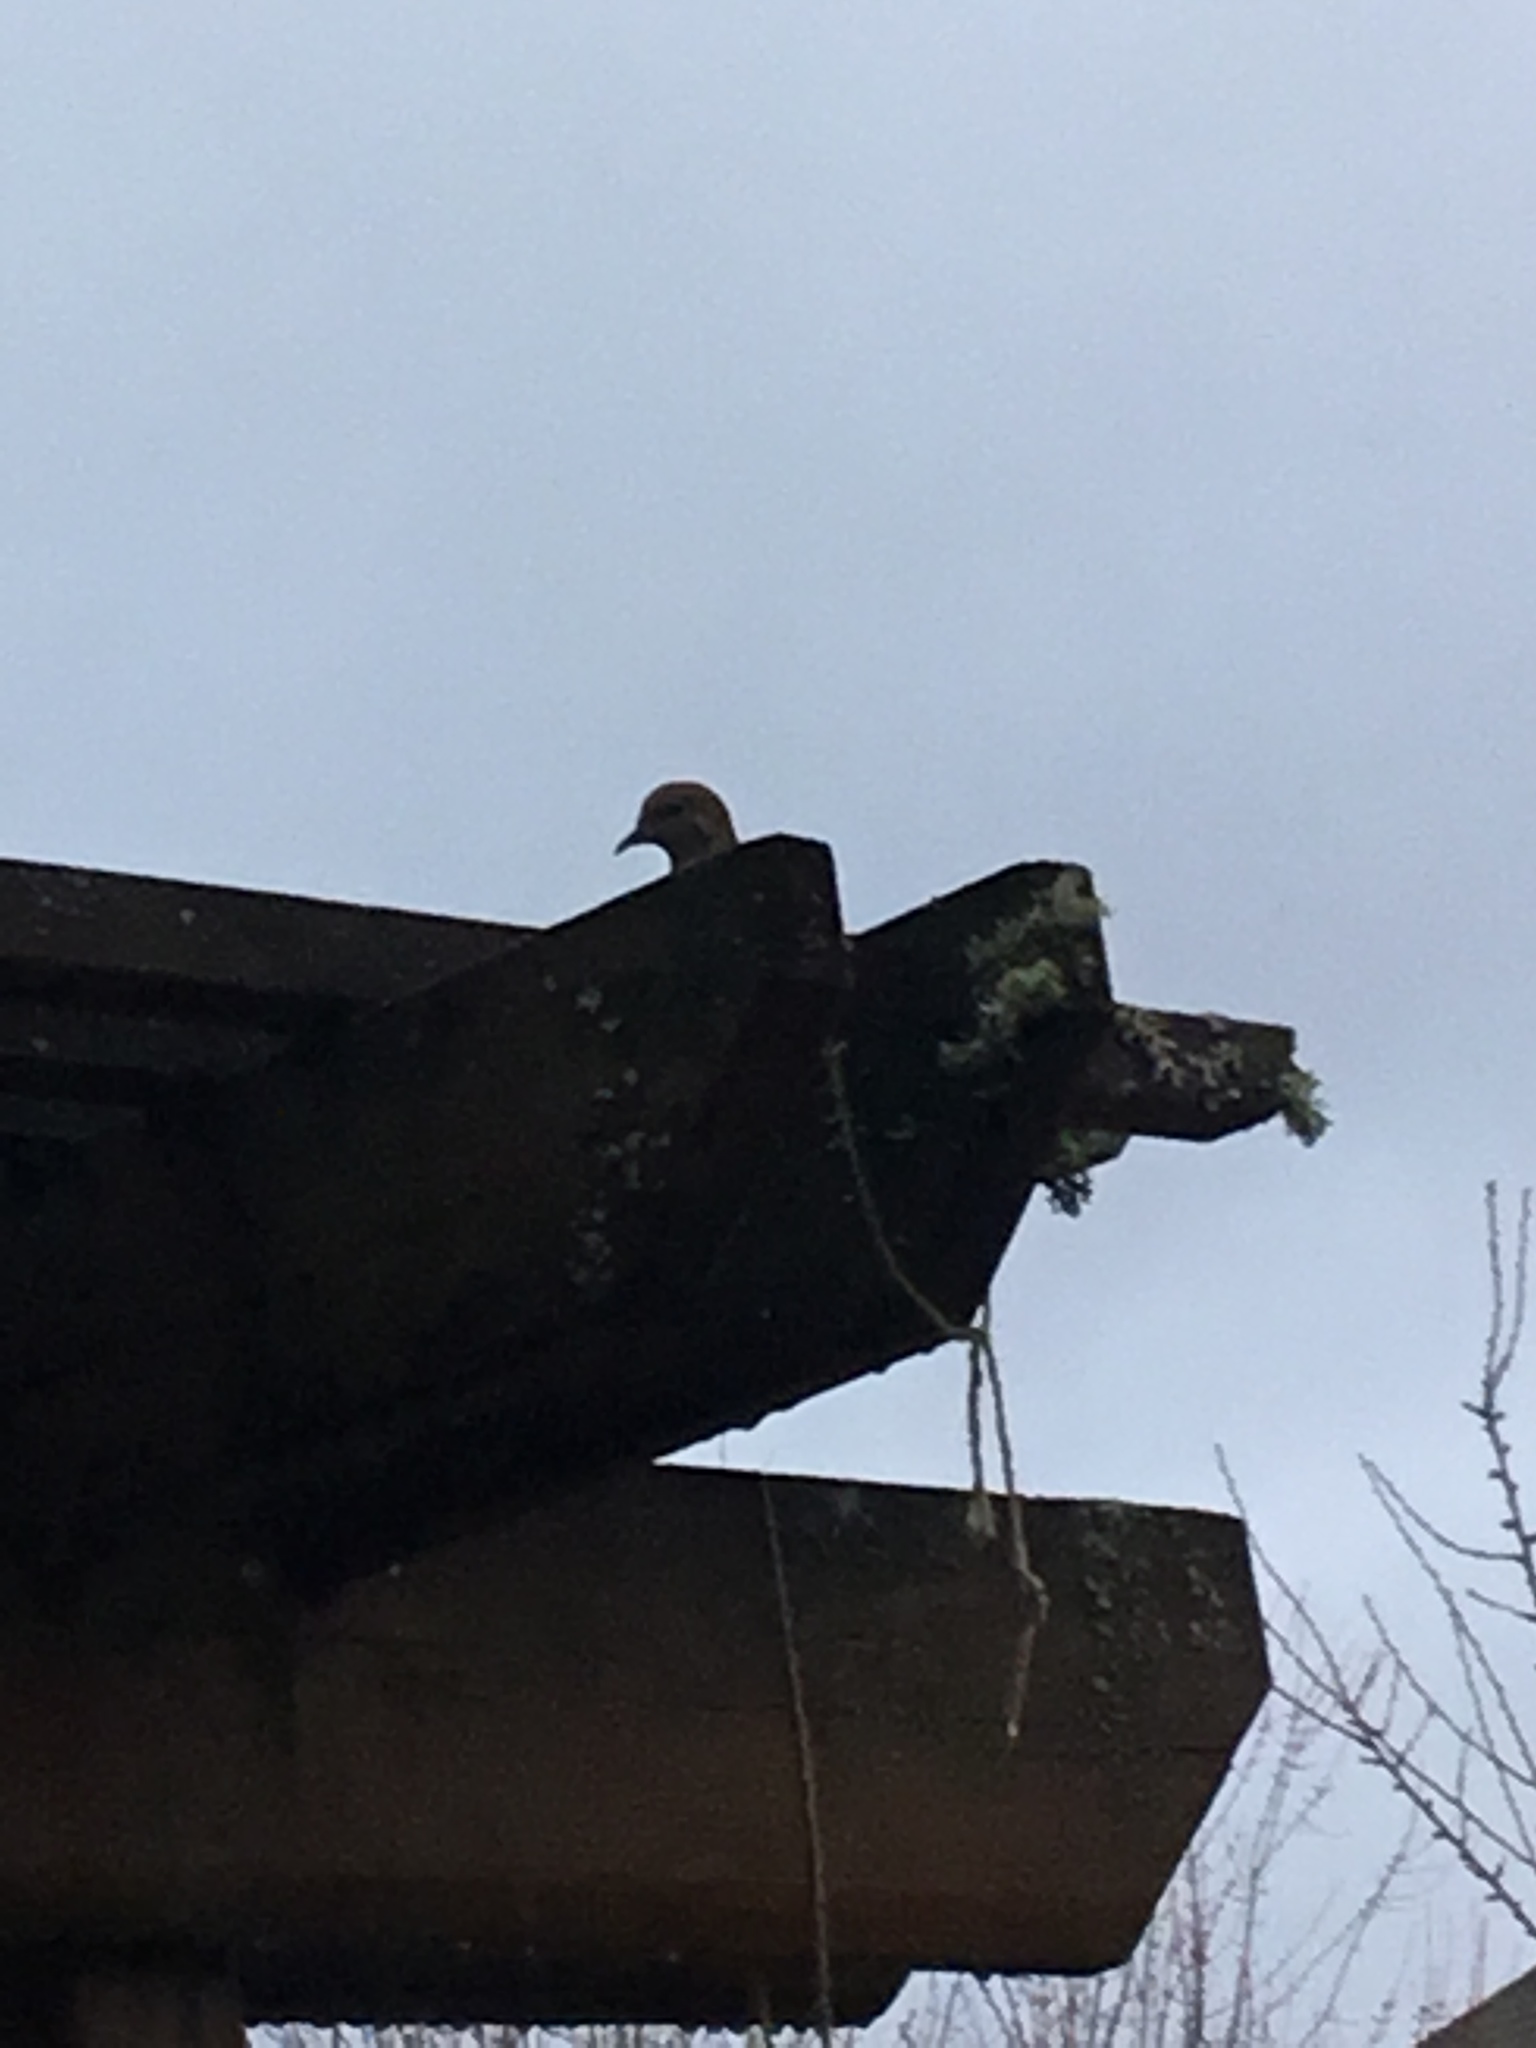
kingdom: Animalia
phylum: Chordata
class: Aves
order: Columbiformes
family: Columbidae
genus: Zenaida
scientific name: Zenaida macroura
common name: Mourning dove
